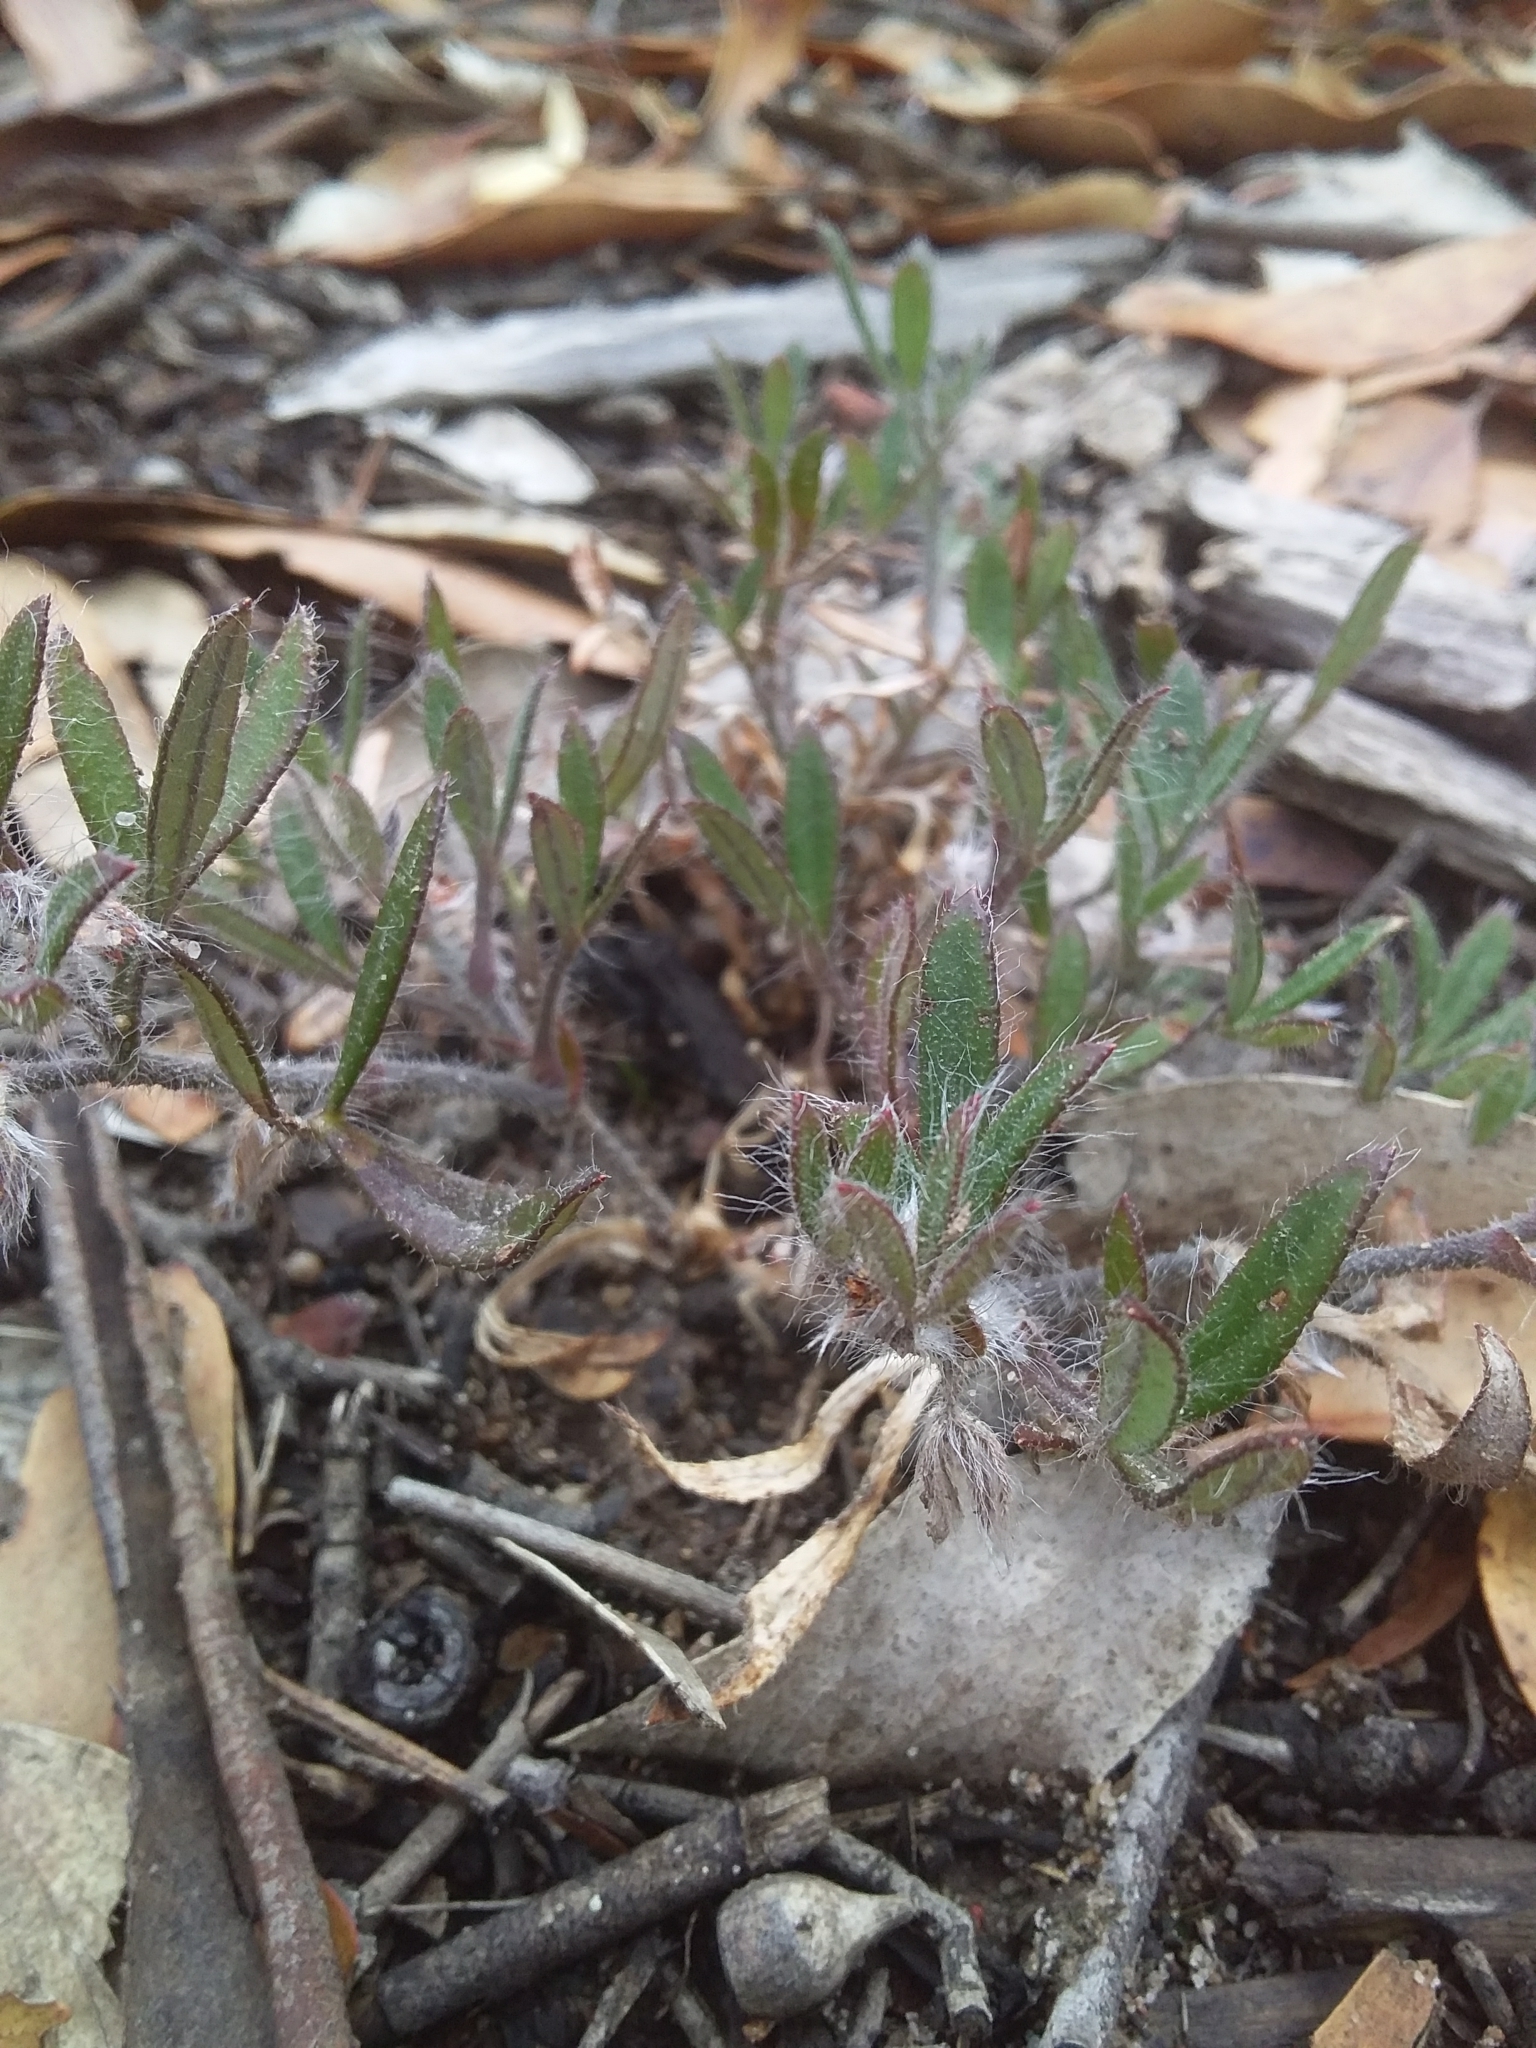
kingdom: Plantae
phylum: Tracheophyta
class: Magnoliopsida
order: Apiales
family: Apiaceae
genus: Xanthosia
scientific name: Xanthosia huegelii
